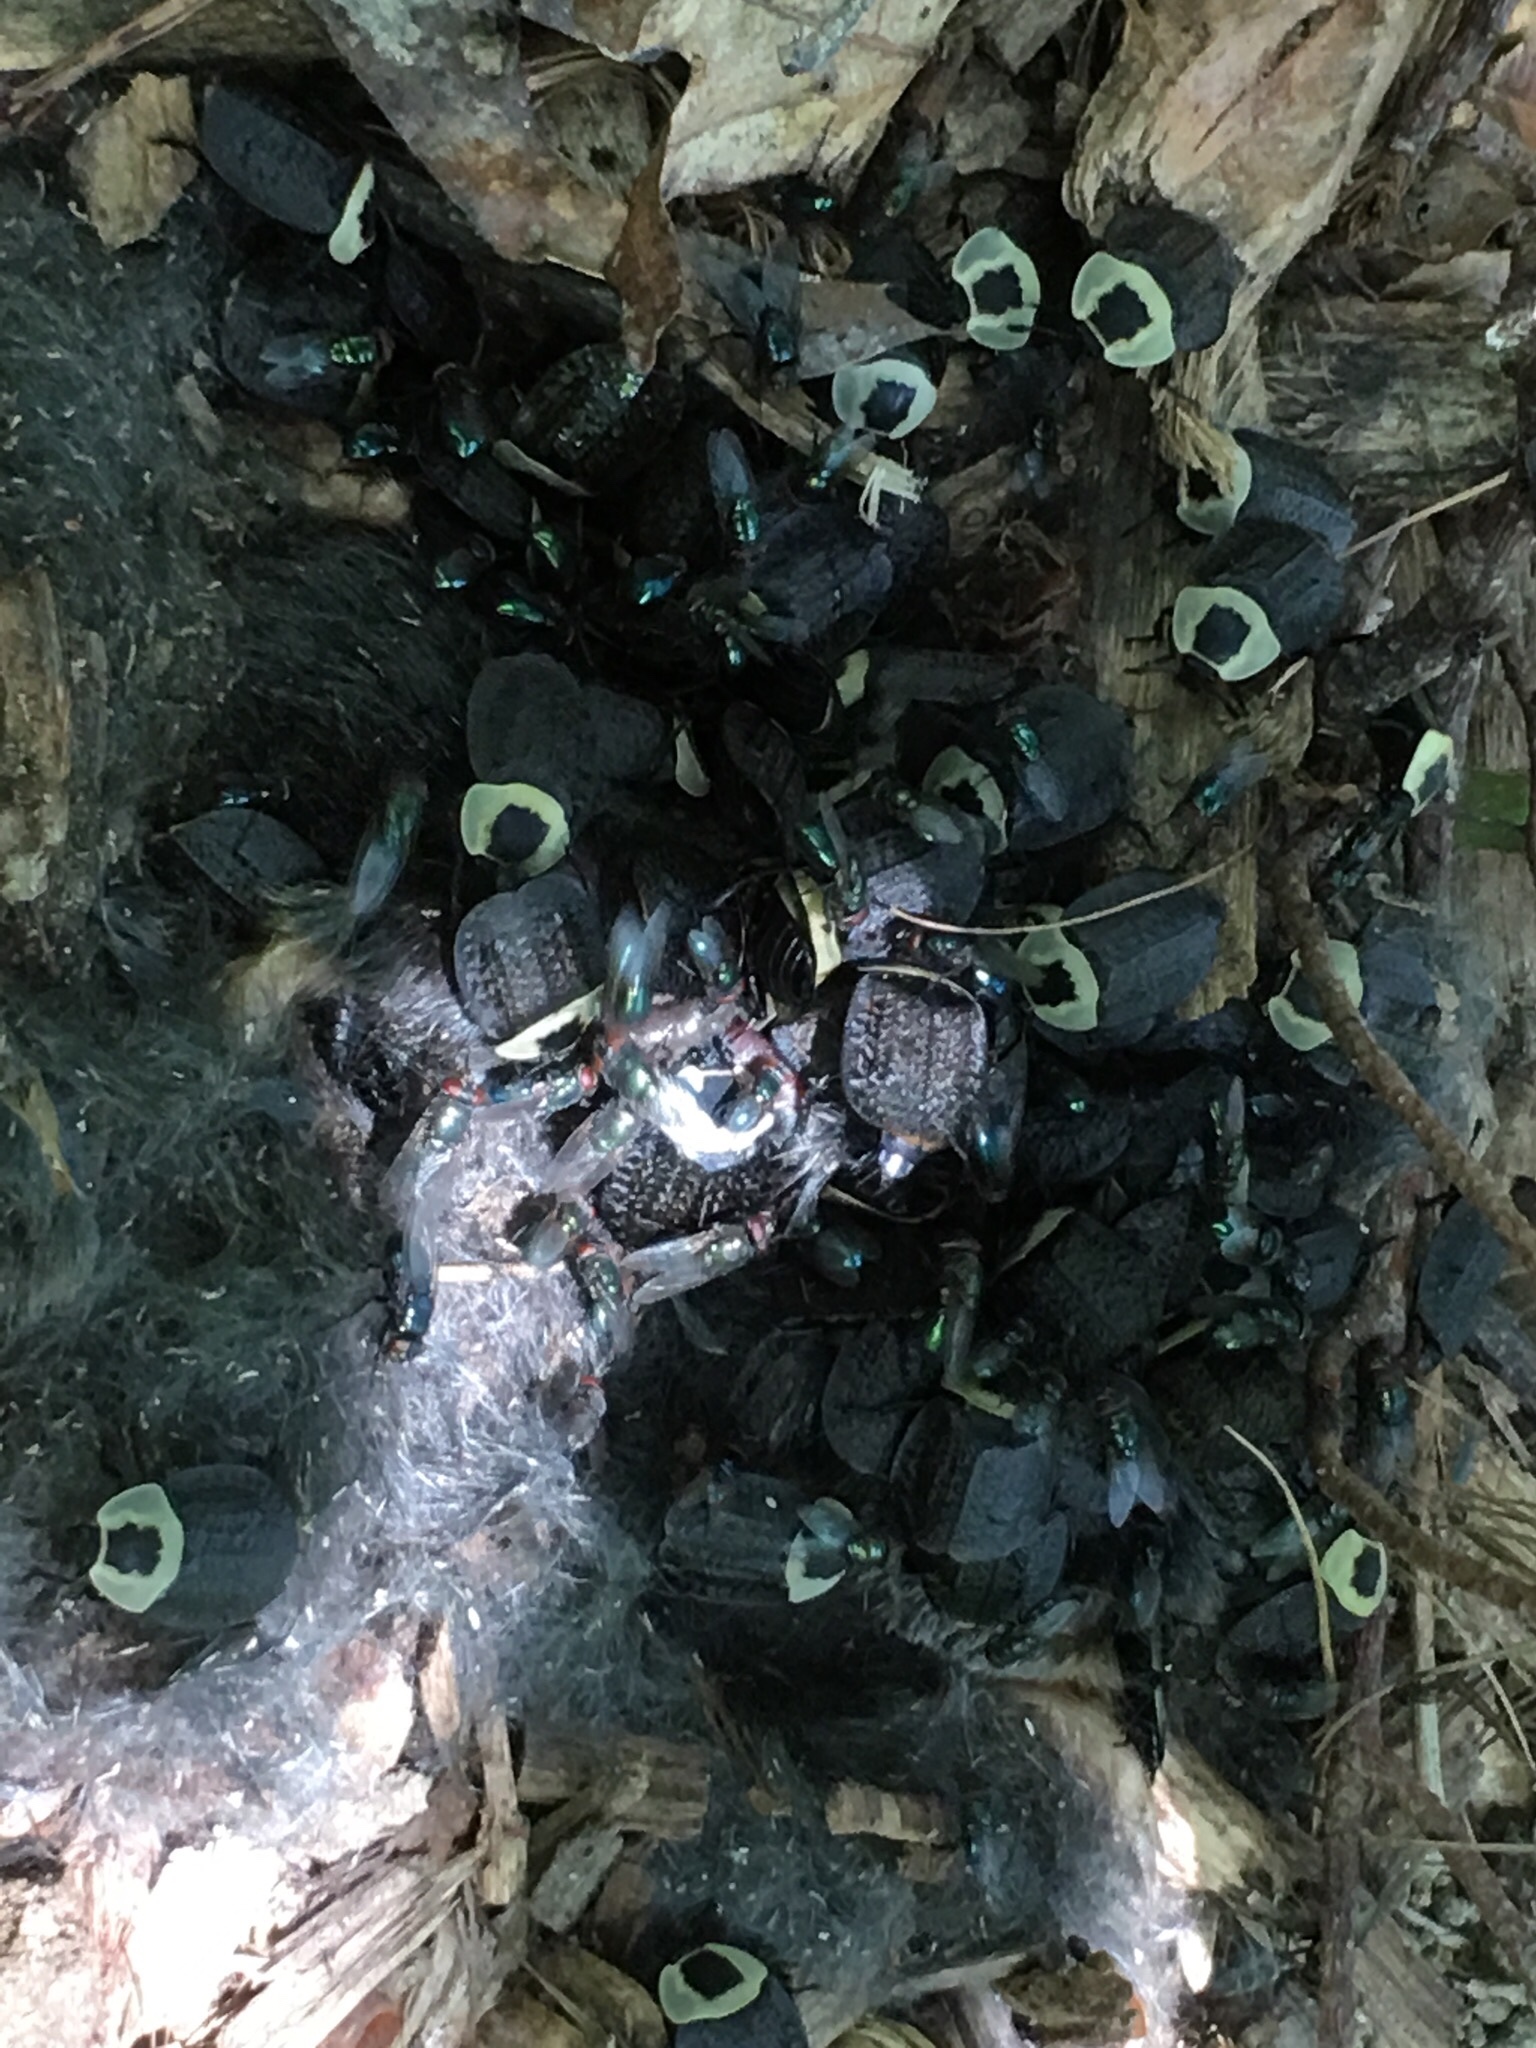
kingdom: Animalia
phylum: Arthropoda
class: Insecta
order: Coleoptera
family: Staphylinidae
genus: Necrophila
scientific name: Necrophila americana
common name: American carrion beetle
